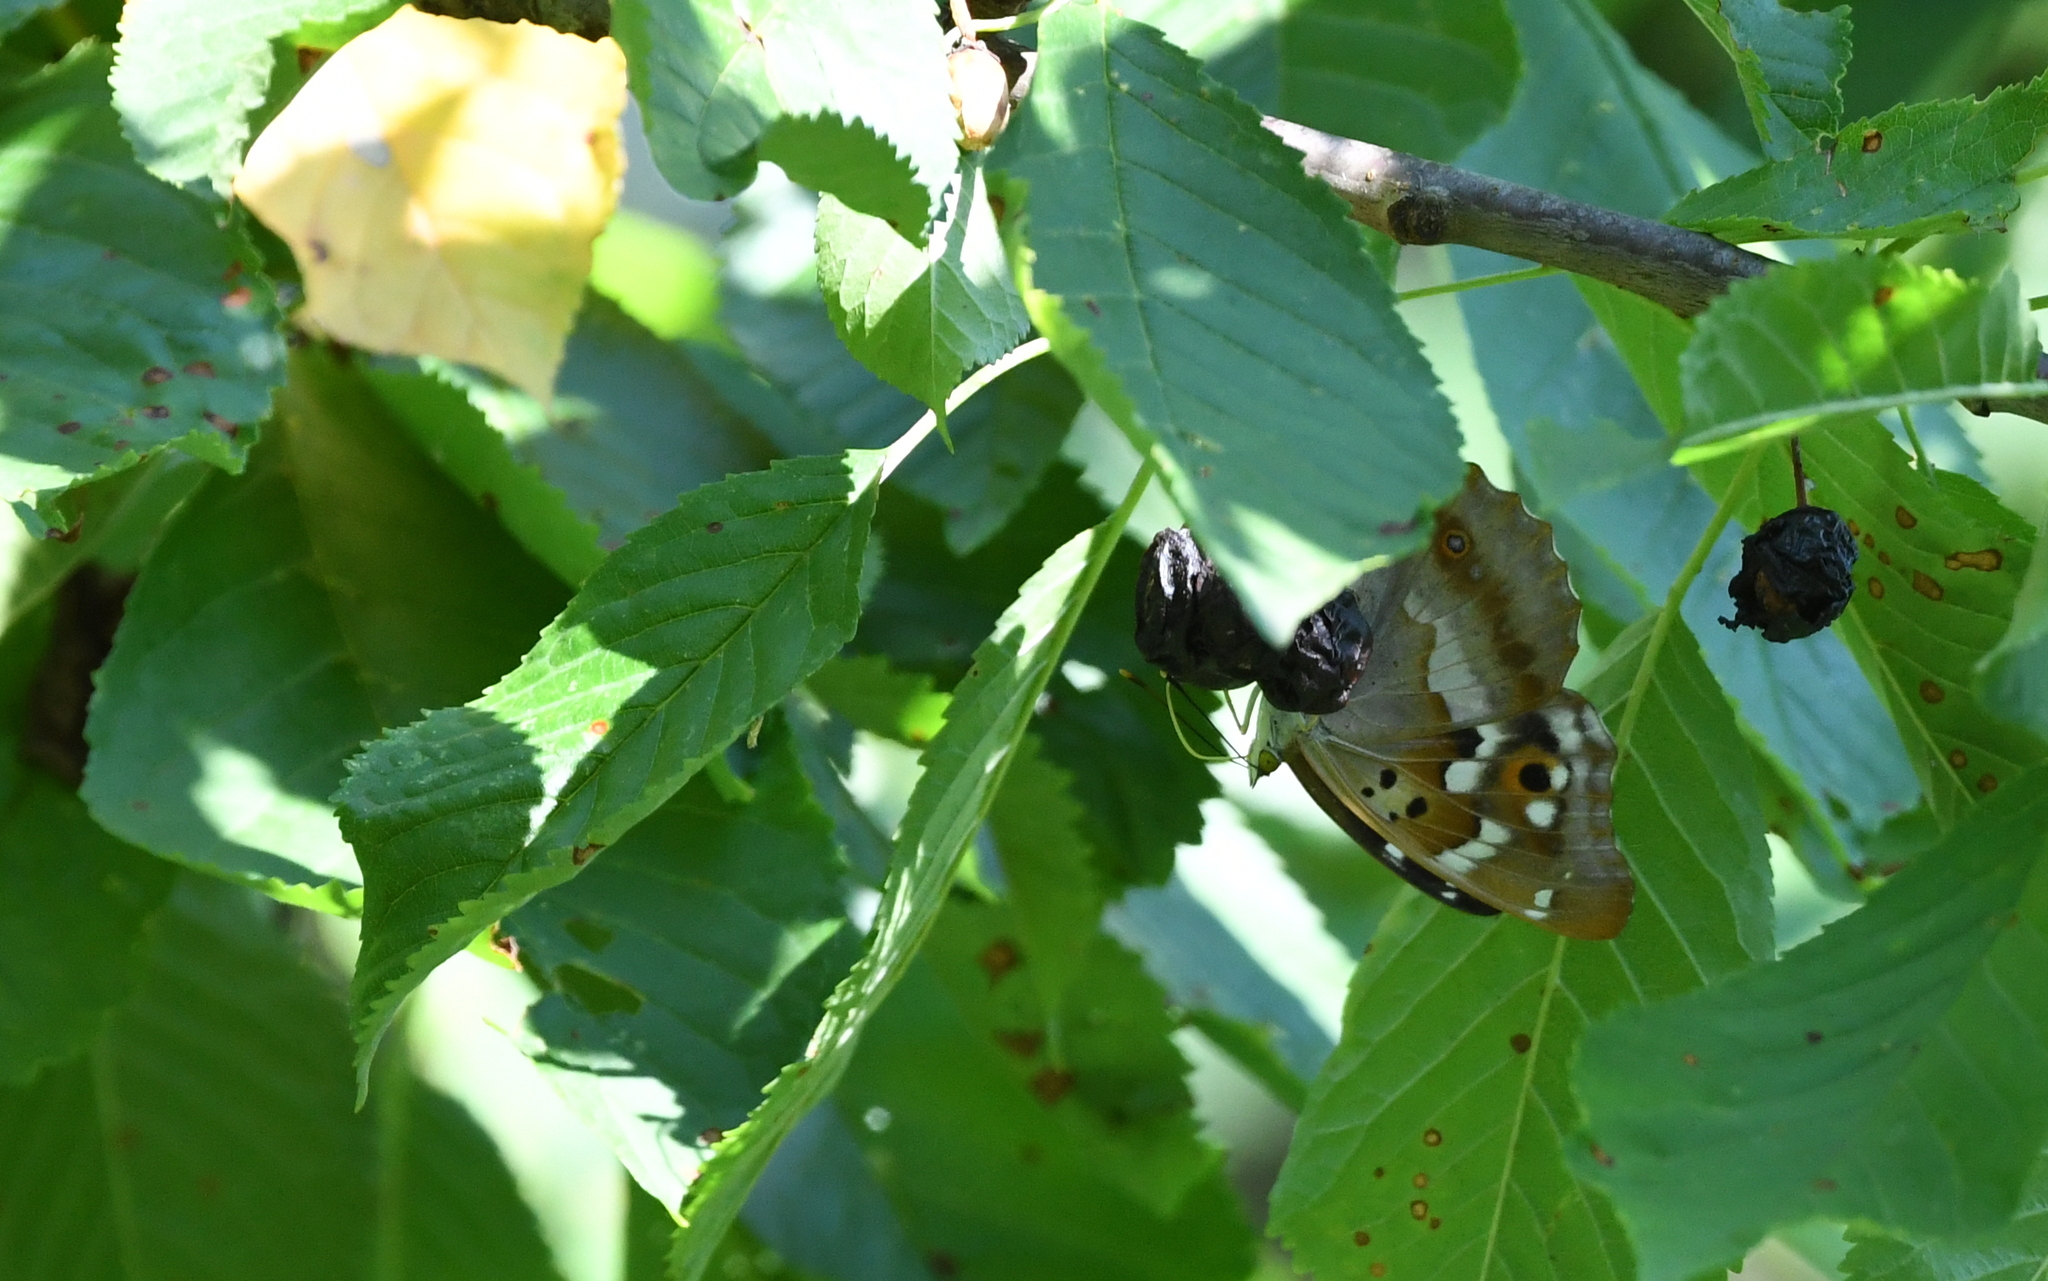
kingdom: Animalia
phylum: Arthropoda
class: Insecta
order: Lepidoptera
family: Nymphalidae
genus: Apatura
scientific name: Apatura ilia
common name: Lesser purple emperor
